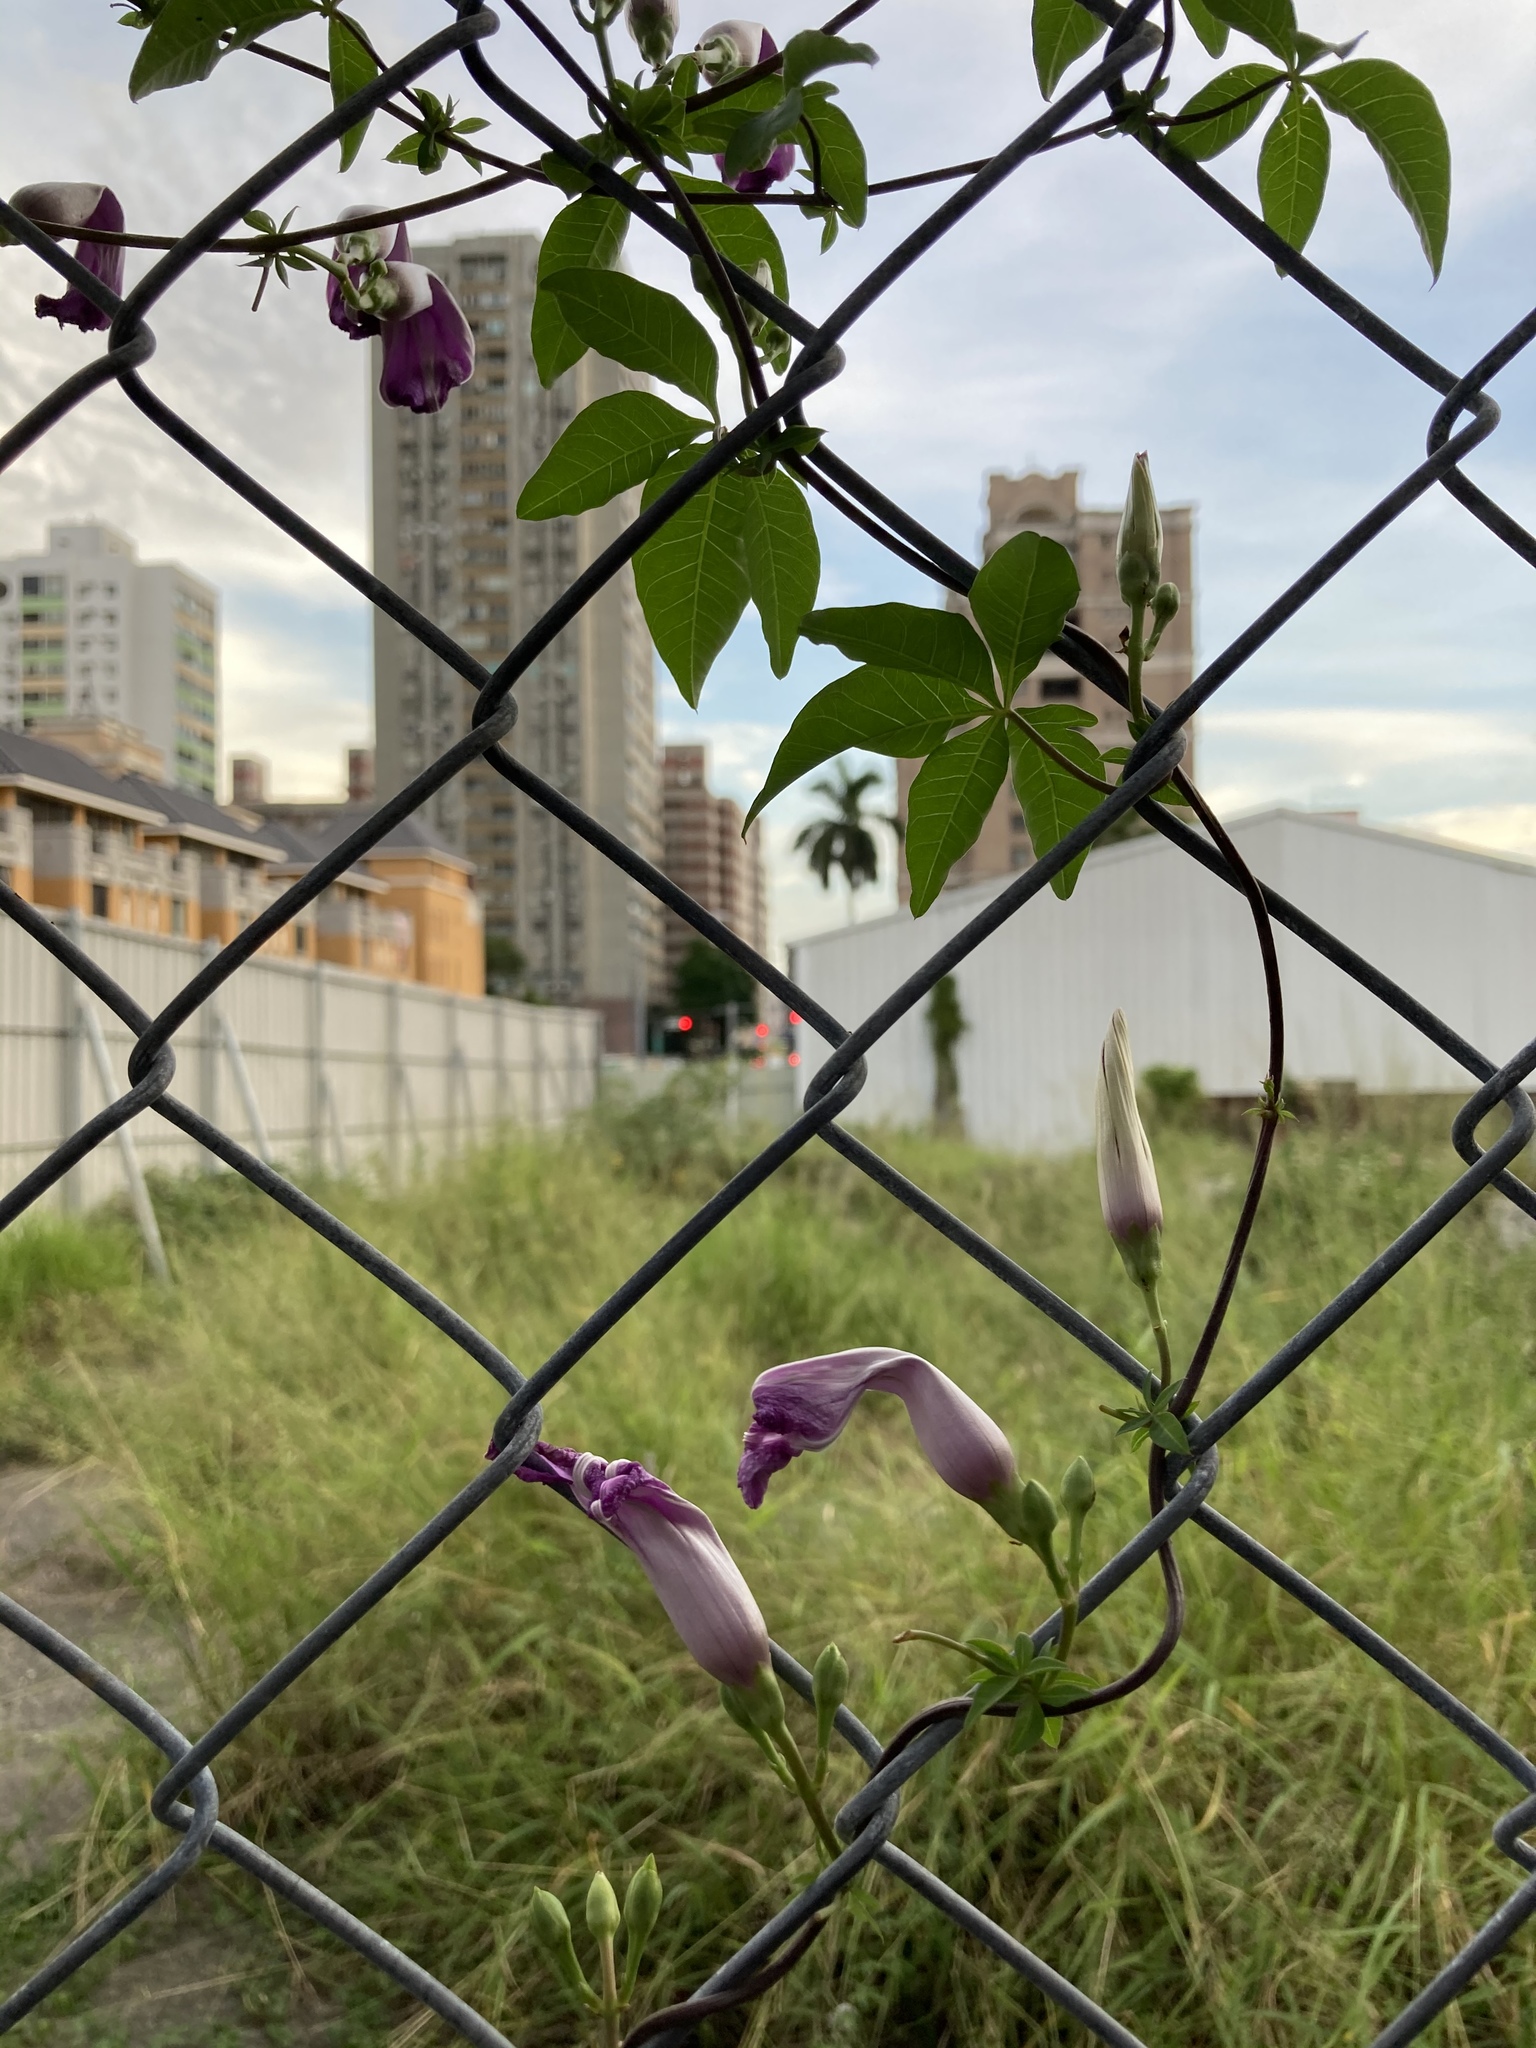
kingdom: Plantae
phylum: Tracheophyta
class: Magnoliopsida
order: Solanales
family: Convolvulaceae
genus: Ipomoea
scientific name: Ipomoea cairica
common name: Mile a minute vine
